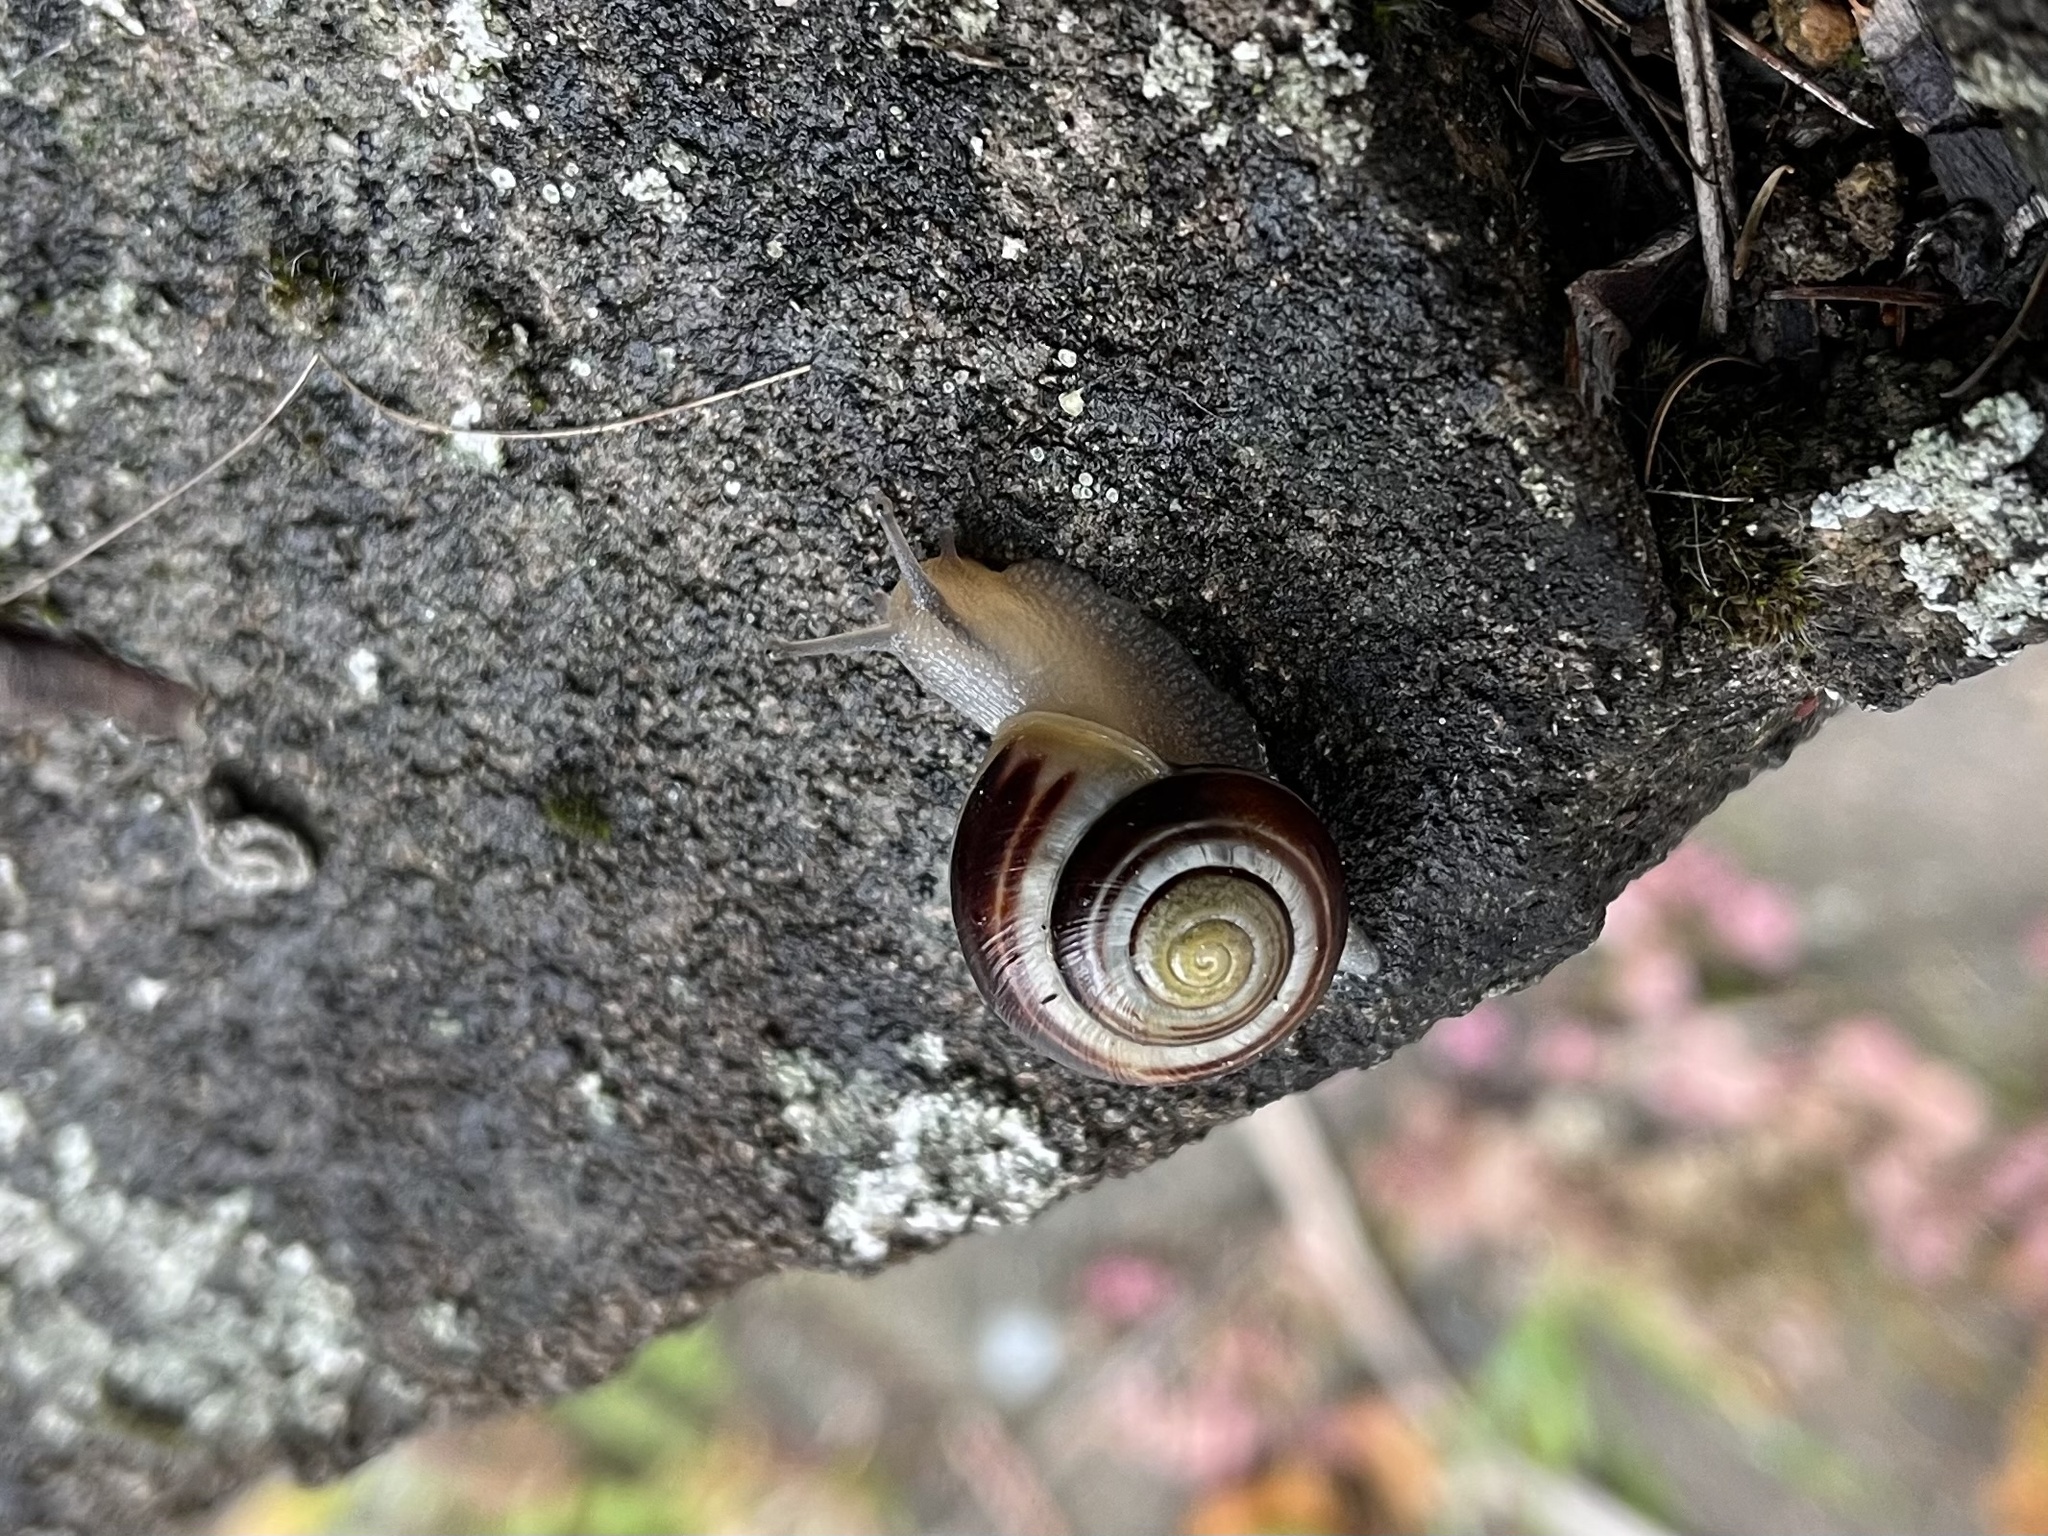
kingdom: Animalia
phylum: Mollusca
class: Gastropoda
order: Stylommatophora
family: Helicidae
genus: Cepaea
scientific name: Cepaea hortensis
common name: White-lip gardensnail
